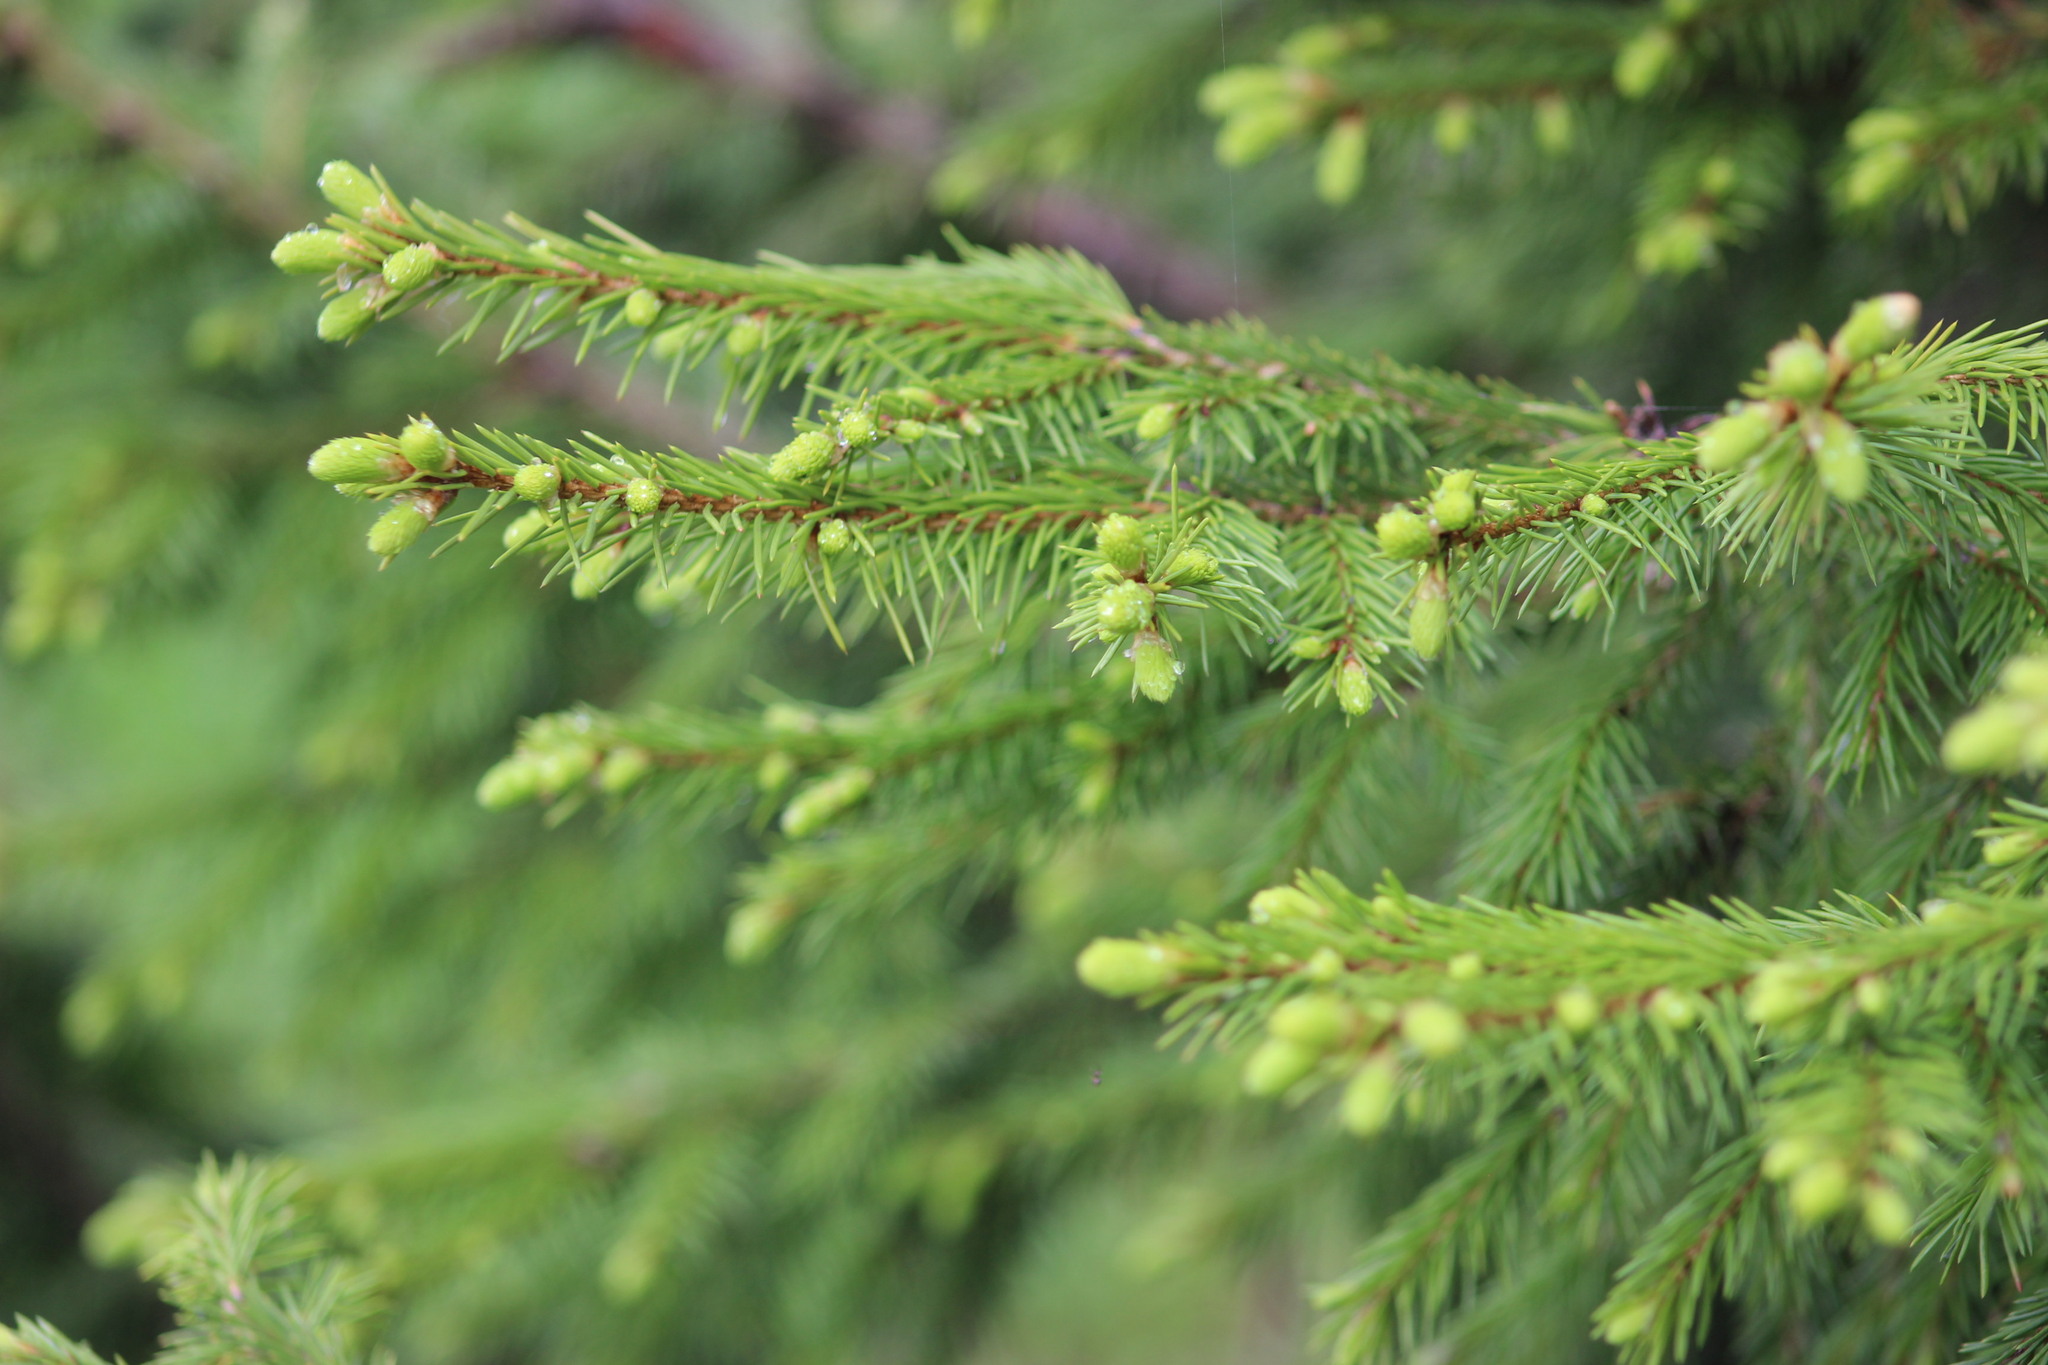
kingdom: Plantae
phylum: Tracheophyta
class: Pinopsida
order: Pinales
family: Pinaceae
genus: Picea
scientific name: Picea obovata
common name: Siberian spruce
